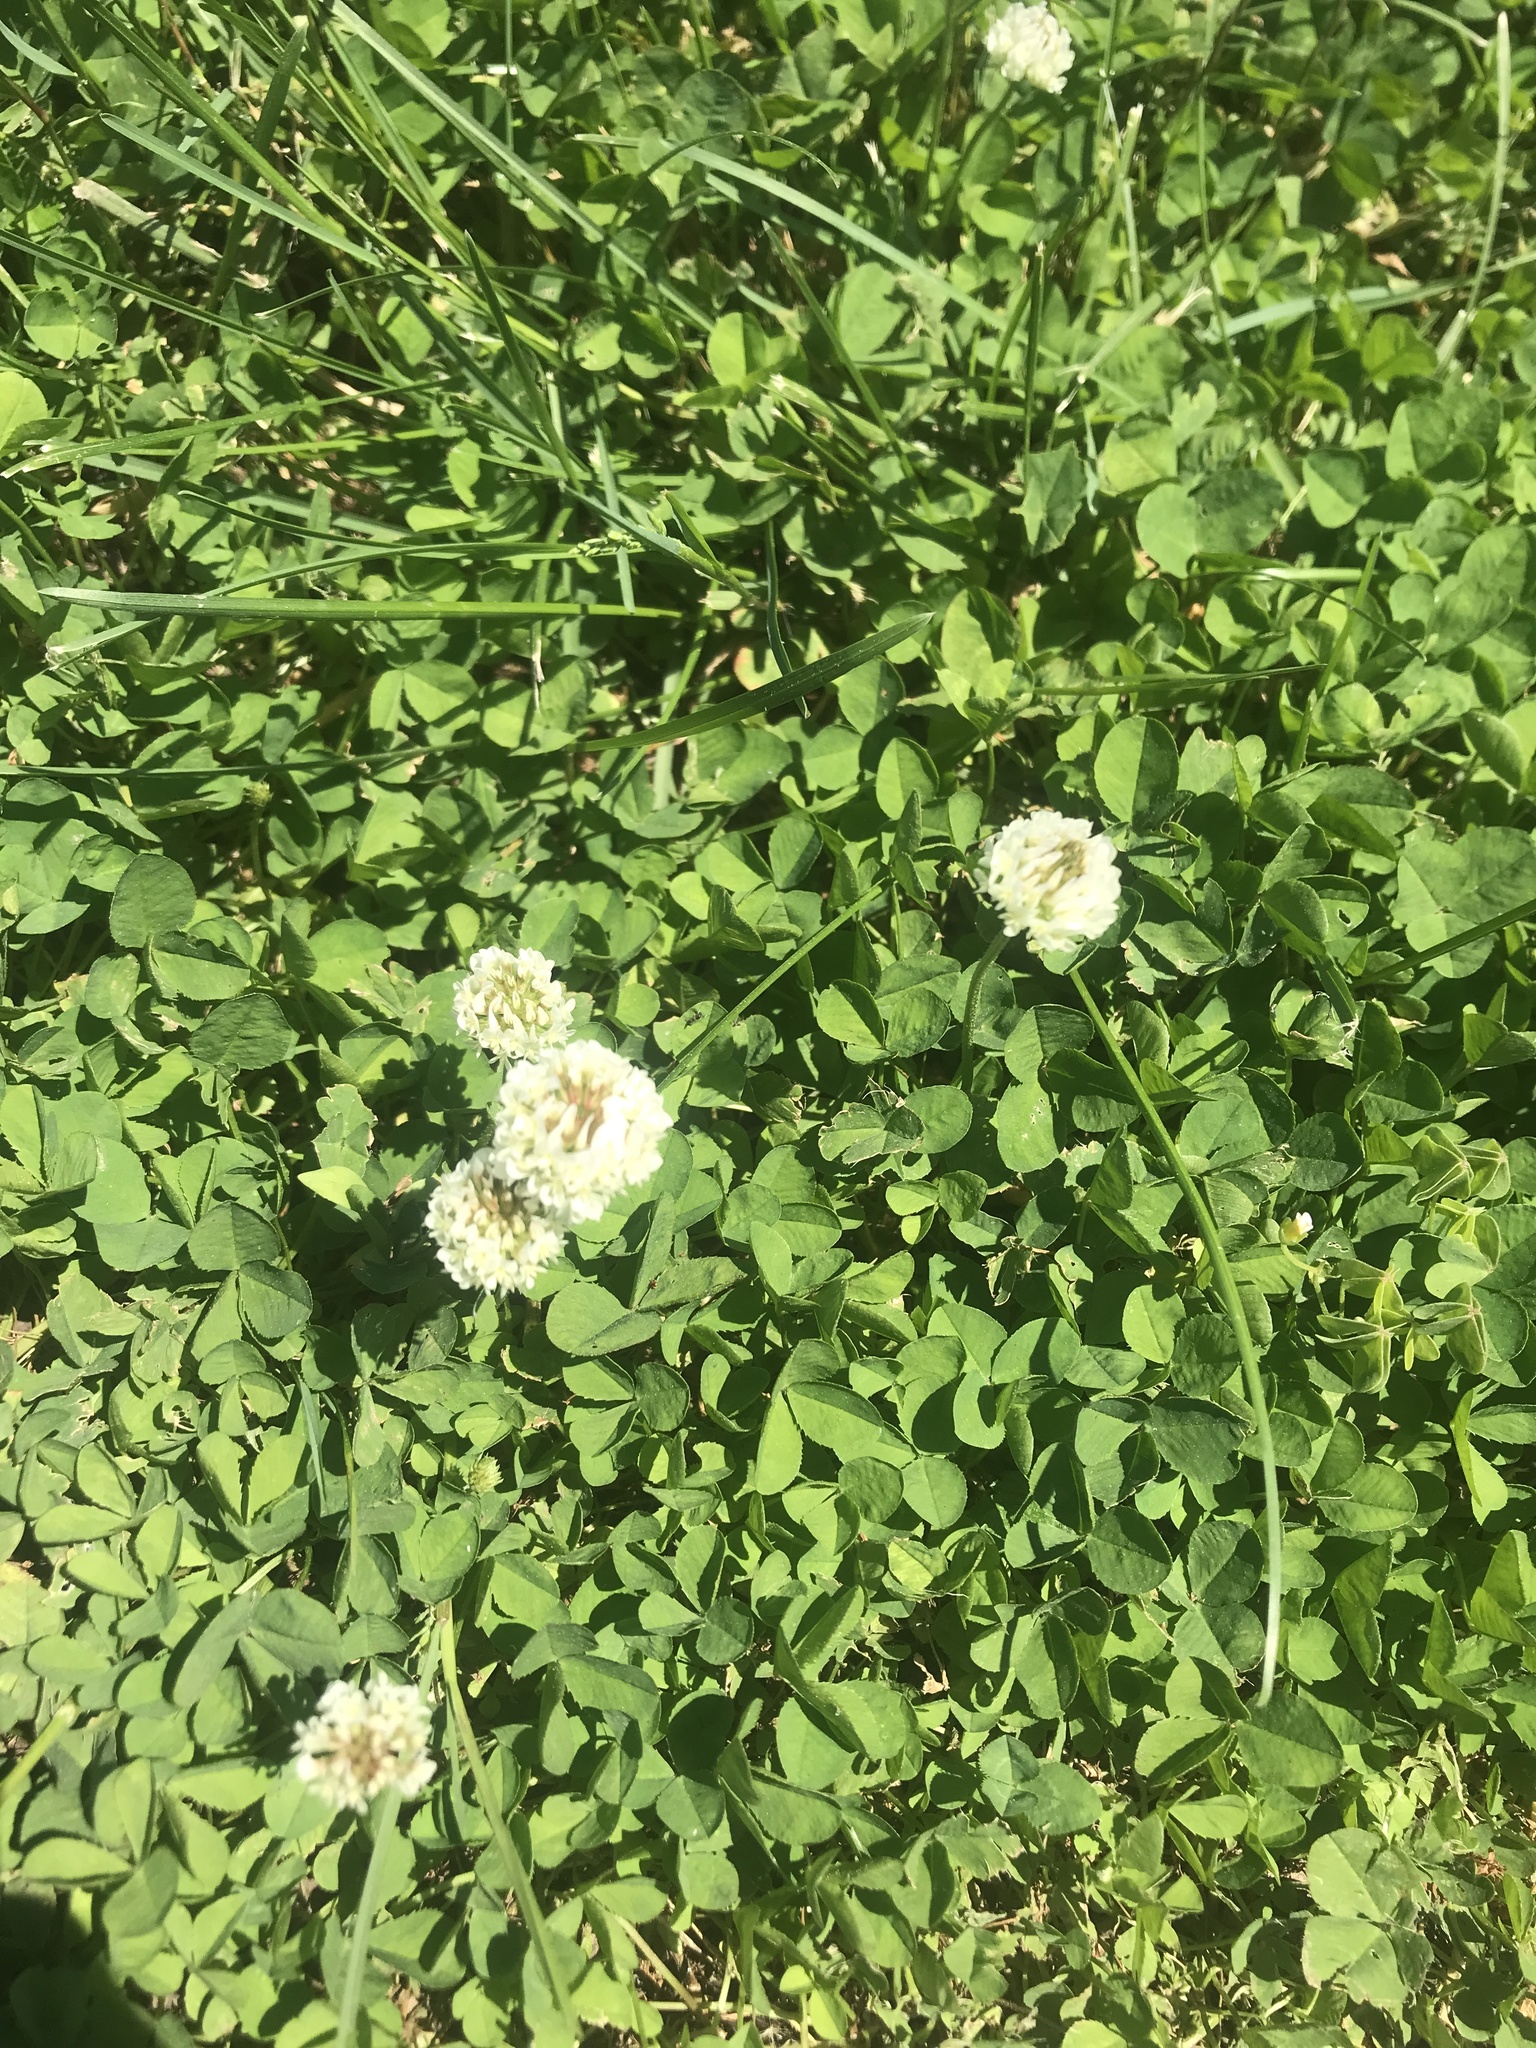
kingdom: Plantae
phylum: Tracheophyta
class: Magnoliopsida
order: Fabales
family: Fabaceae
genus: Trifolium
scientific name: Trifolium repens
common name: White clover
